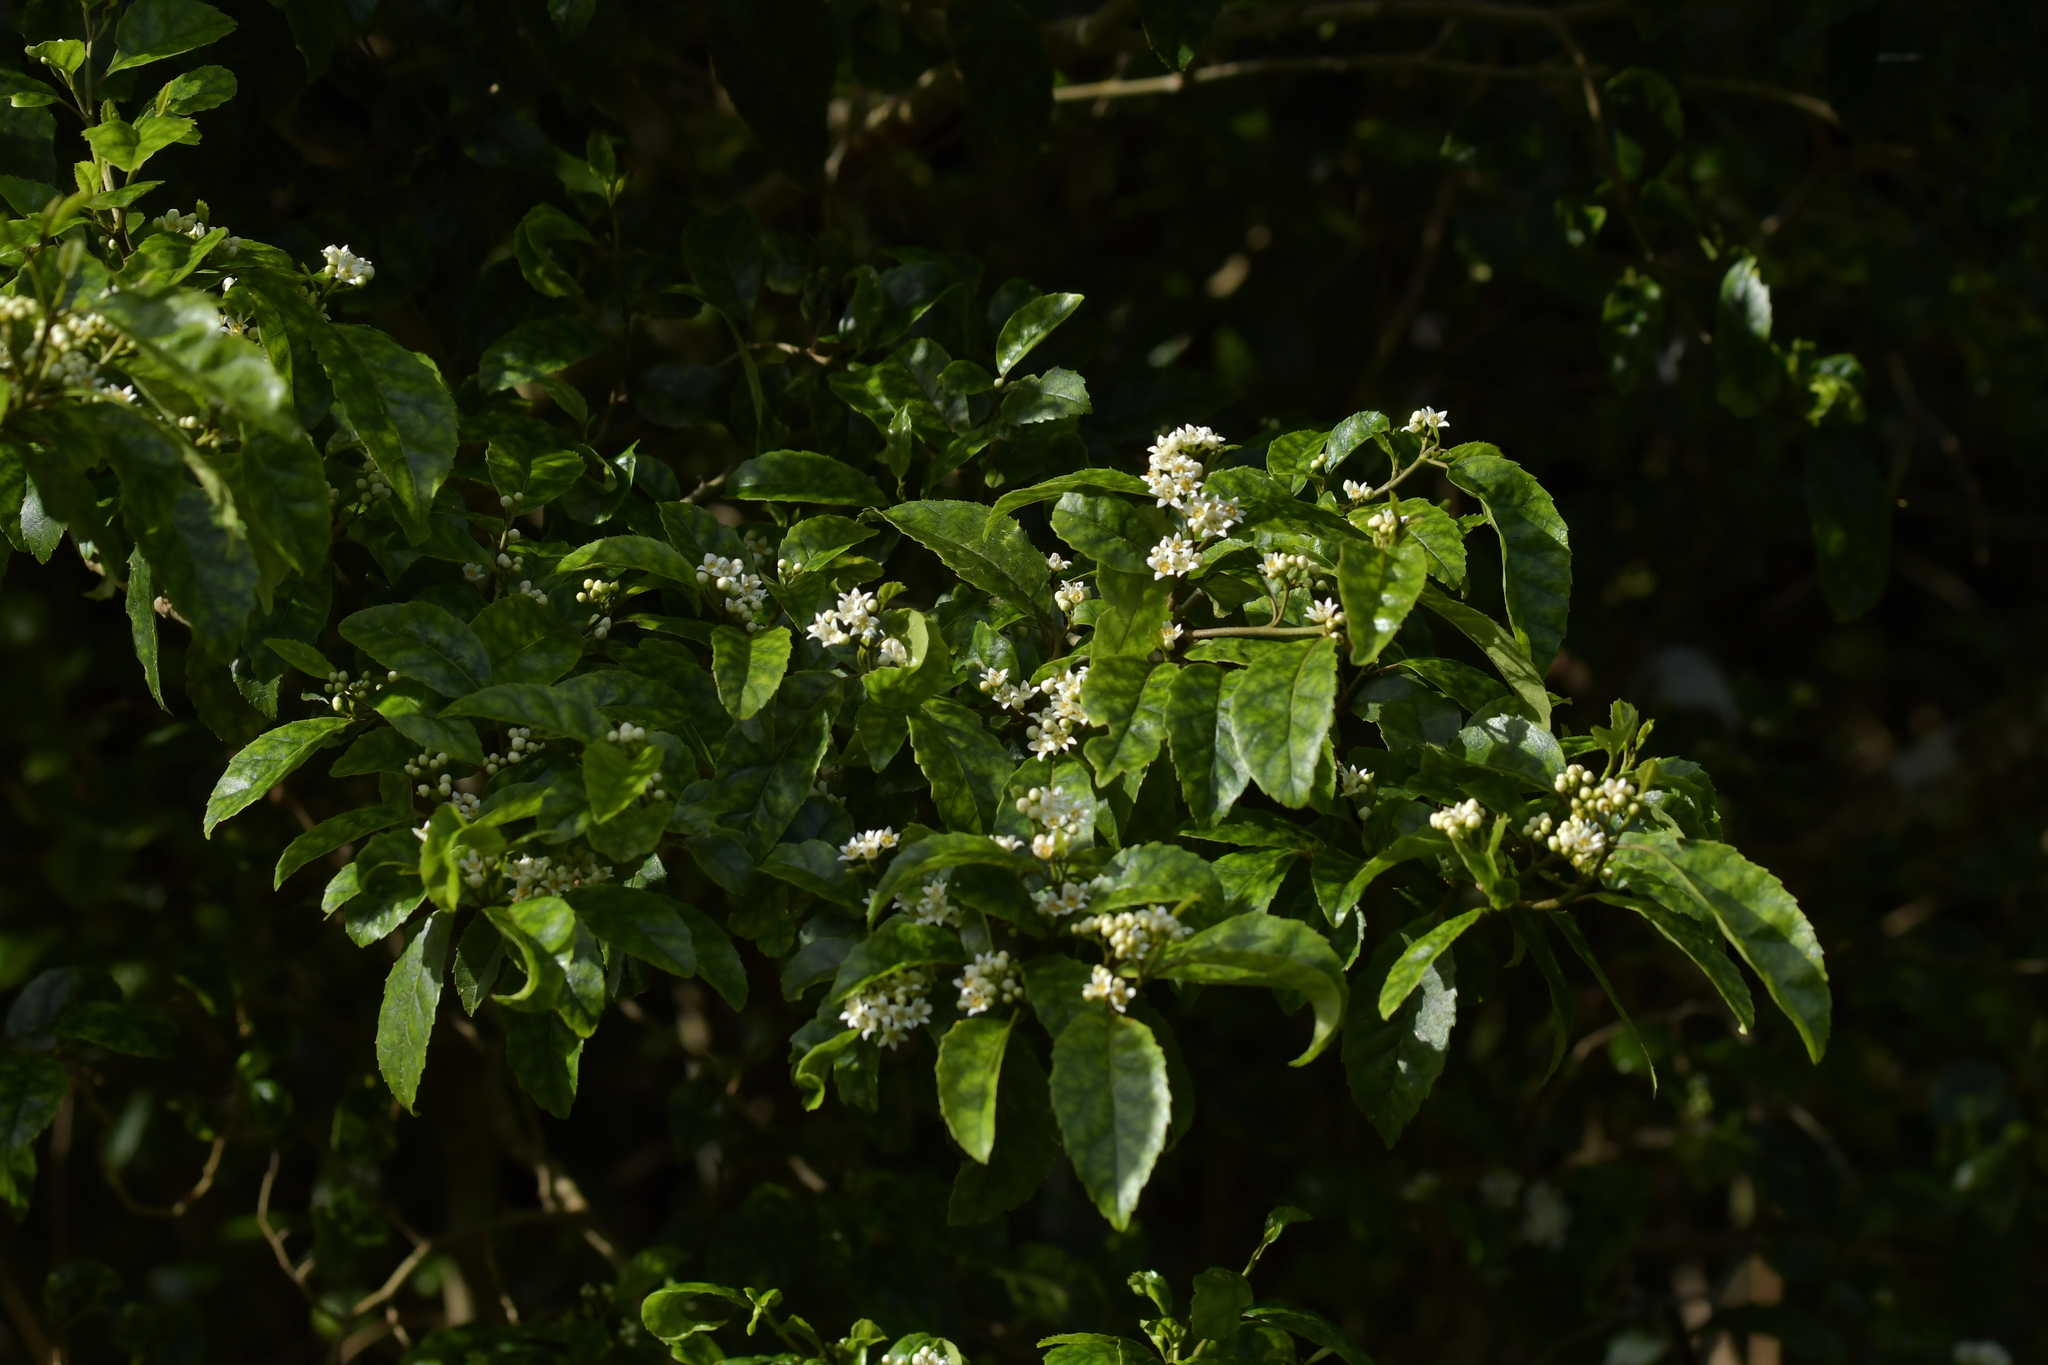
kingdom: Plantae
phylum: Tracheophyta
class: Magnoliopsida
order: Asterales
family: Rousseaceae
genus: Carpodetus
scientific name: Carpodetus serratus
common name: White mapau
